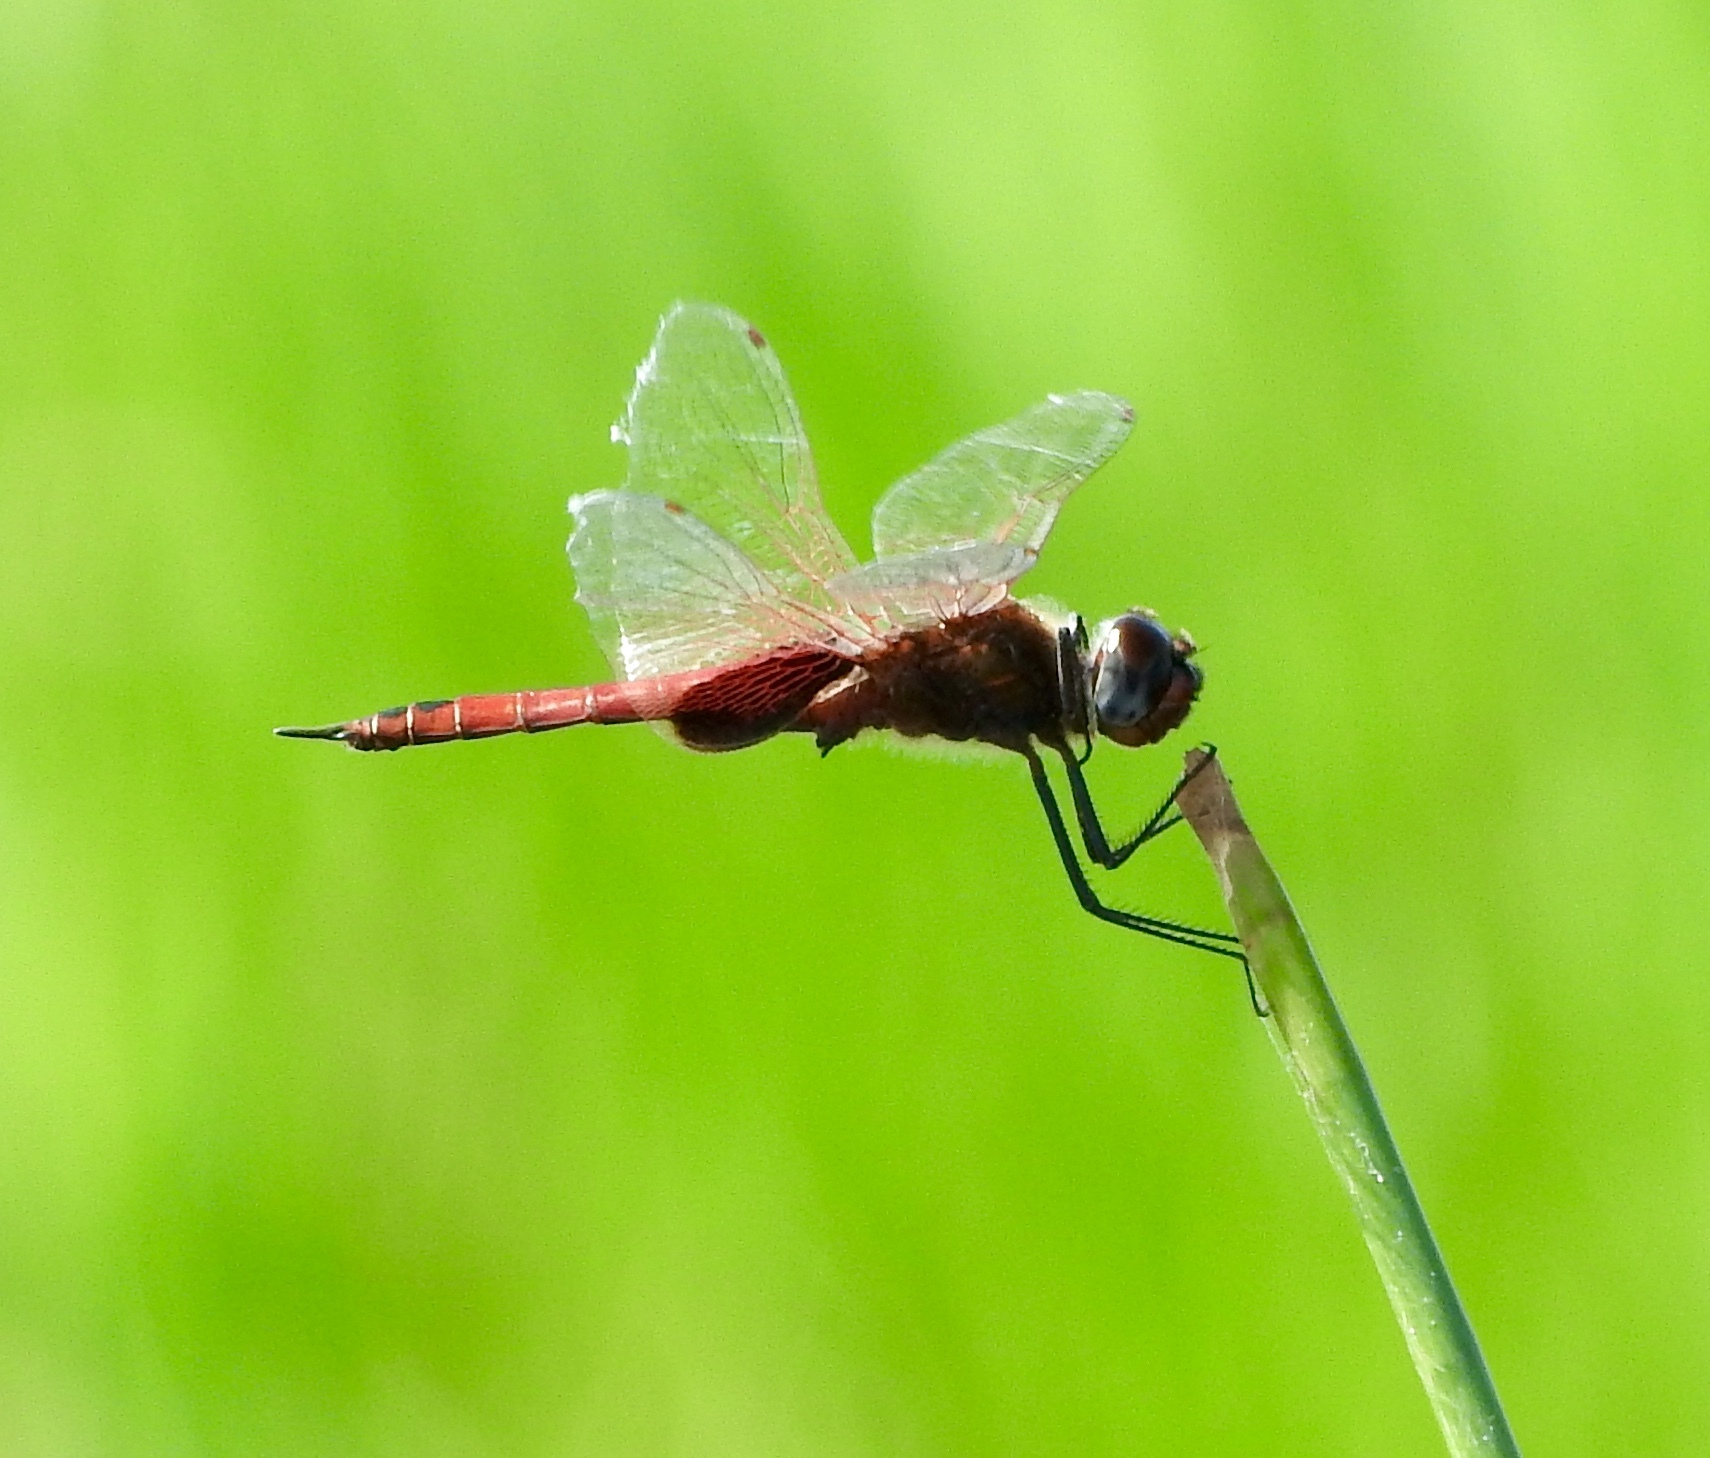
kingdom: Animalia
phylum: Arthropoda
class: Insecta
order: Odonata
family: Libellulidae
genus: Tramea
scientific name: Tramea limbata
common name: Ferruginous glider
